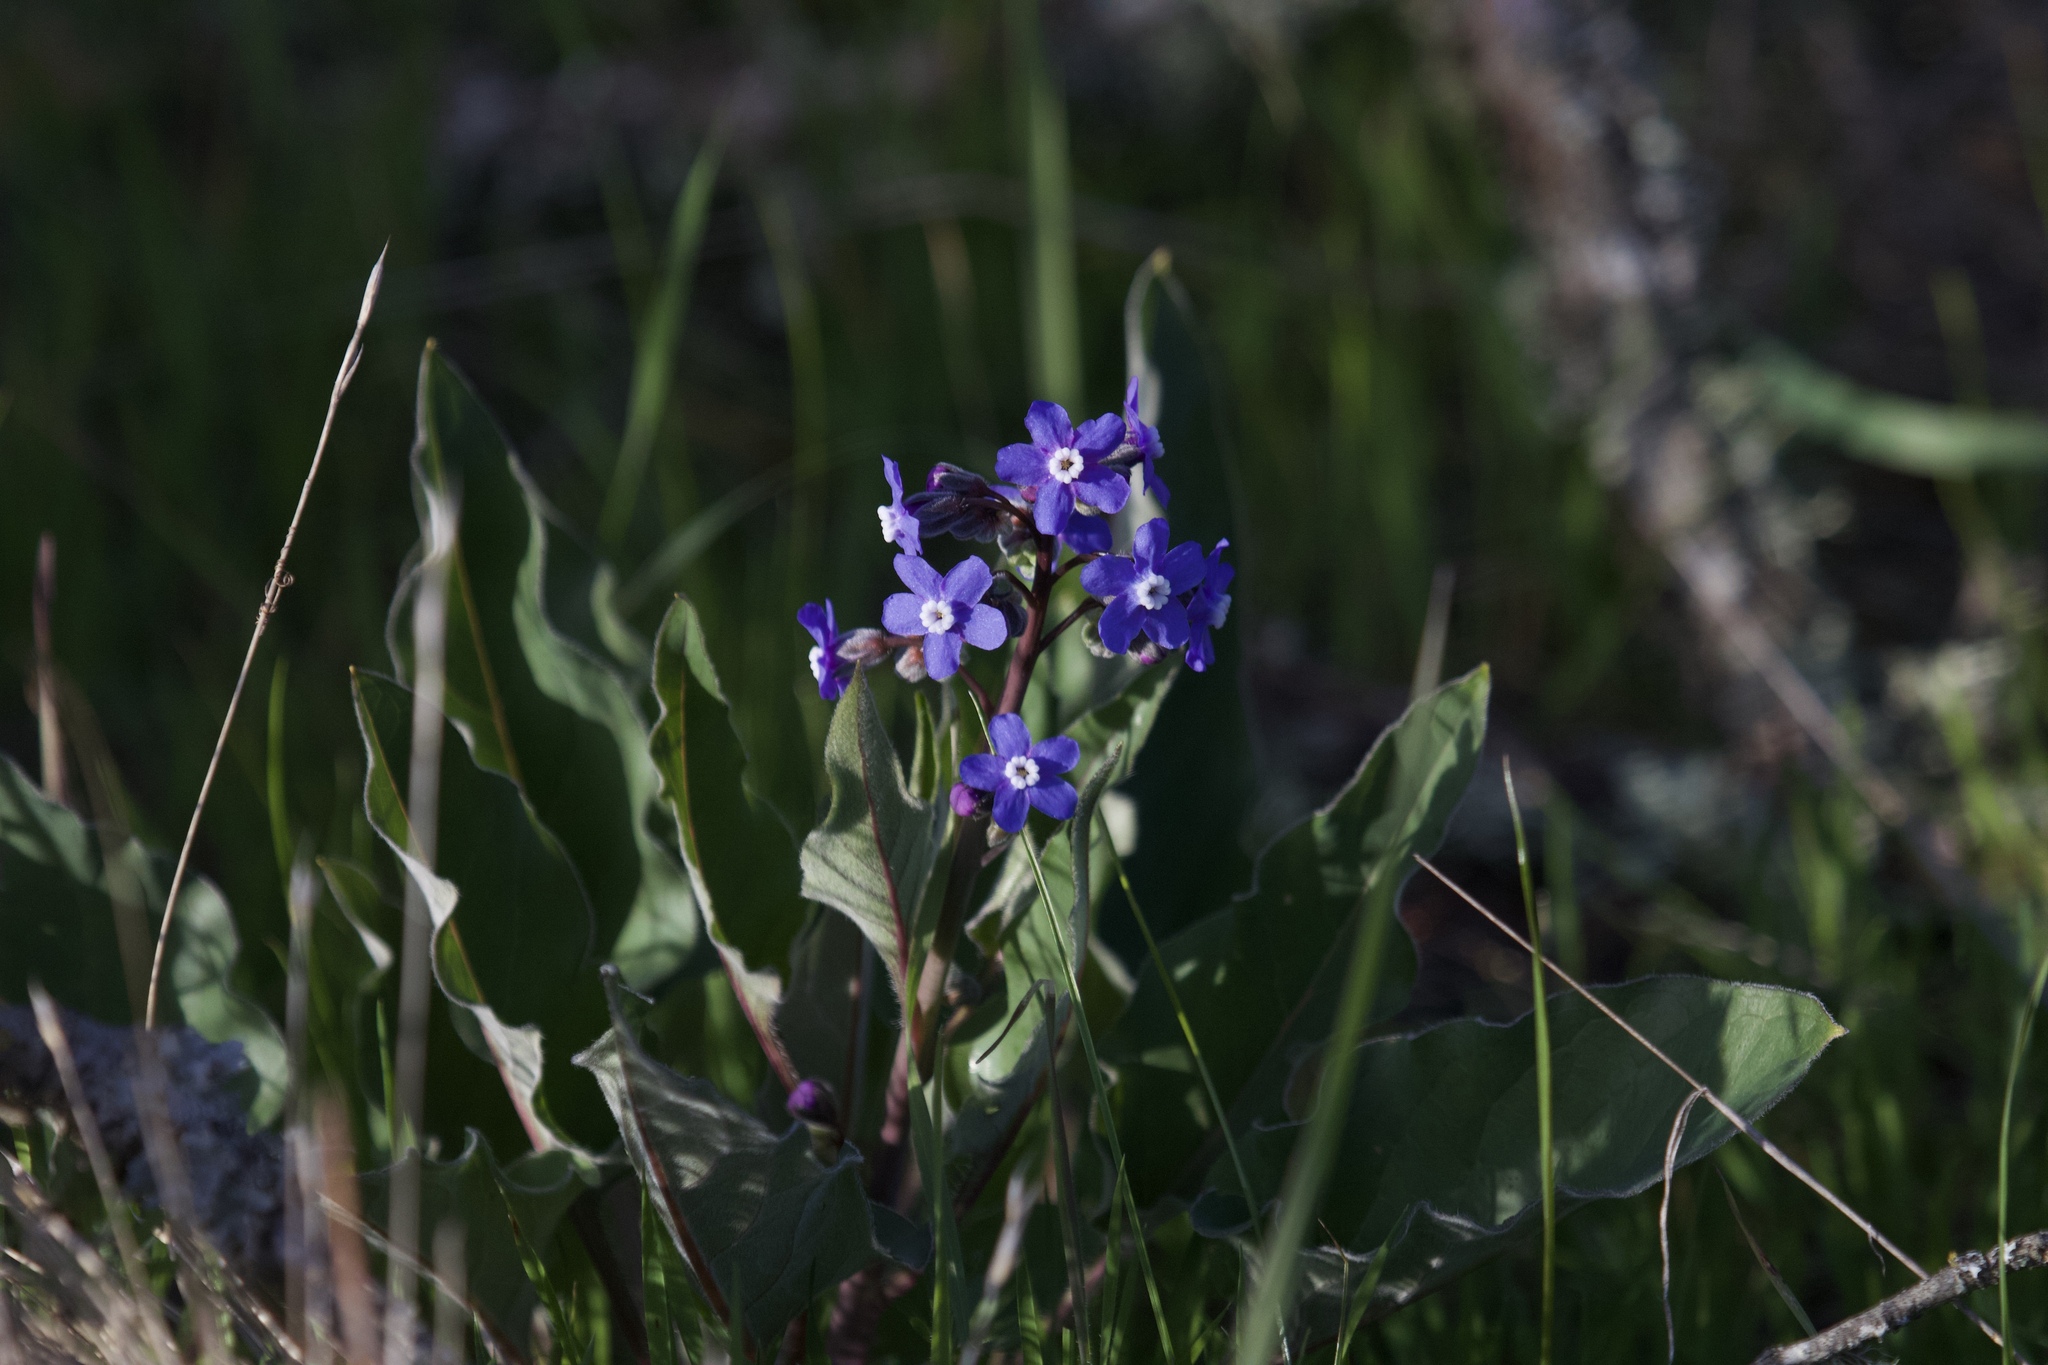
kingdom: Plantae
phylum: Tracheophyta
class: Magnoliopsida
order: Boraginales
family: Boraginaceae
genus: Adelinia
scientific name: Adelinia grande
